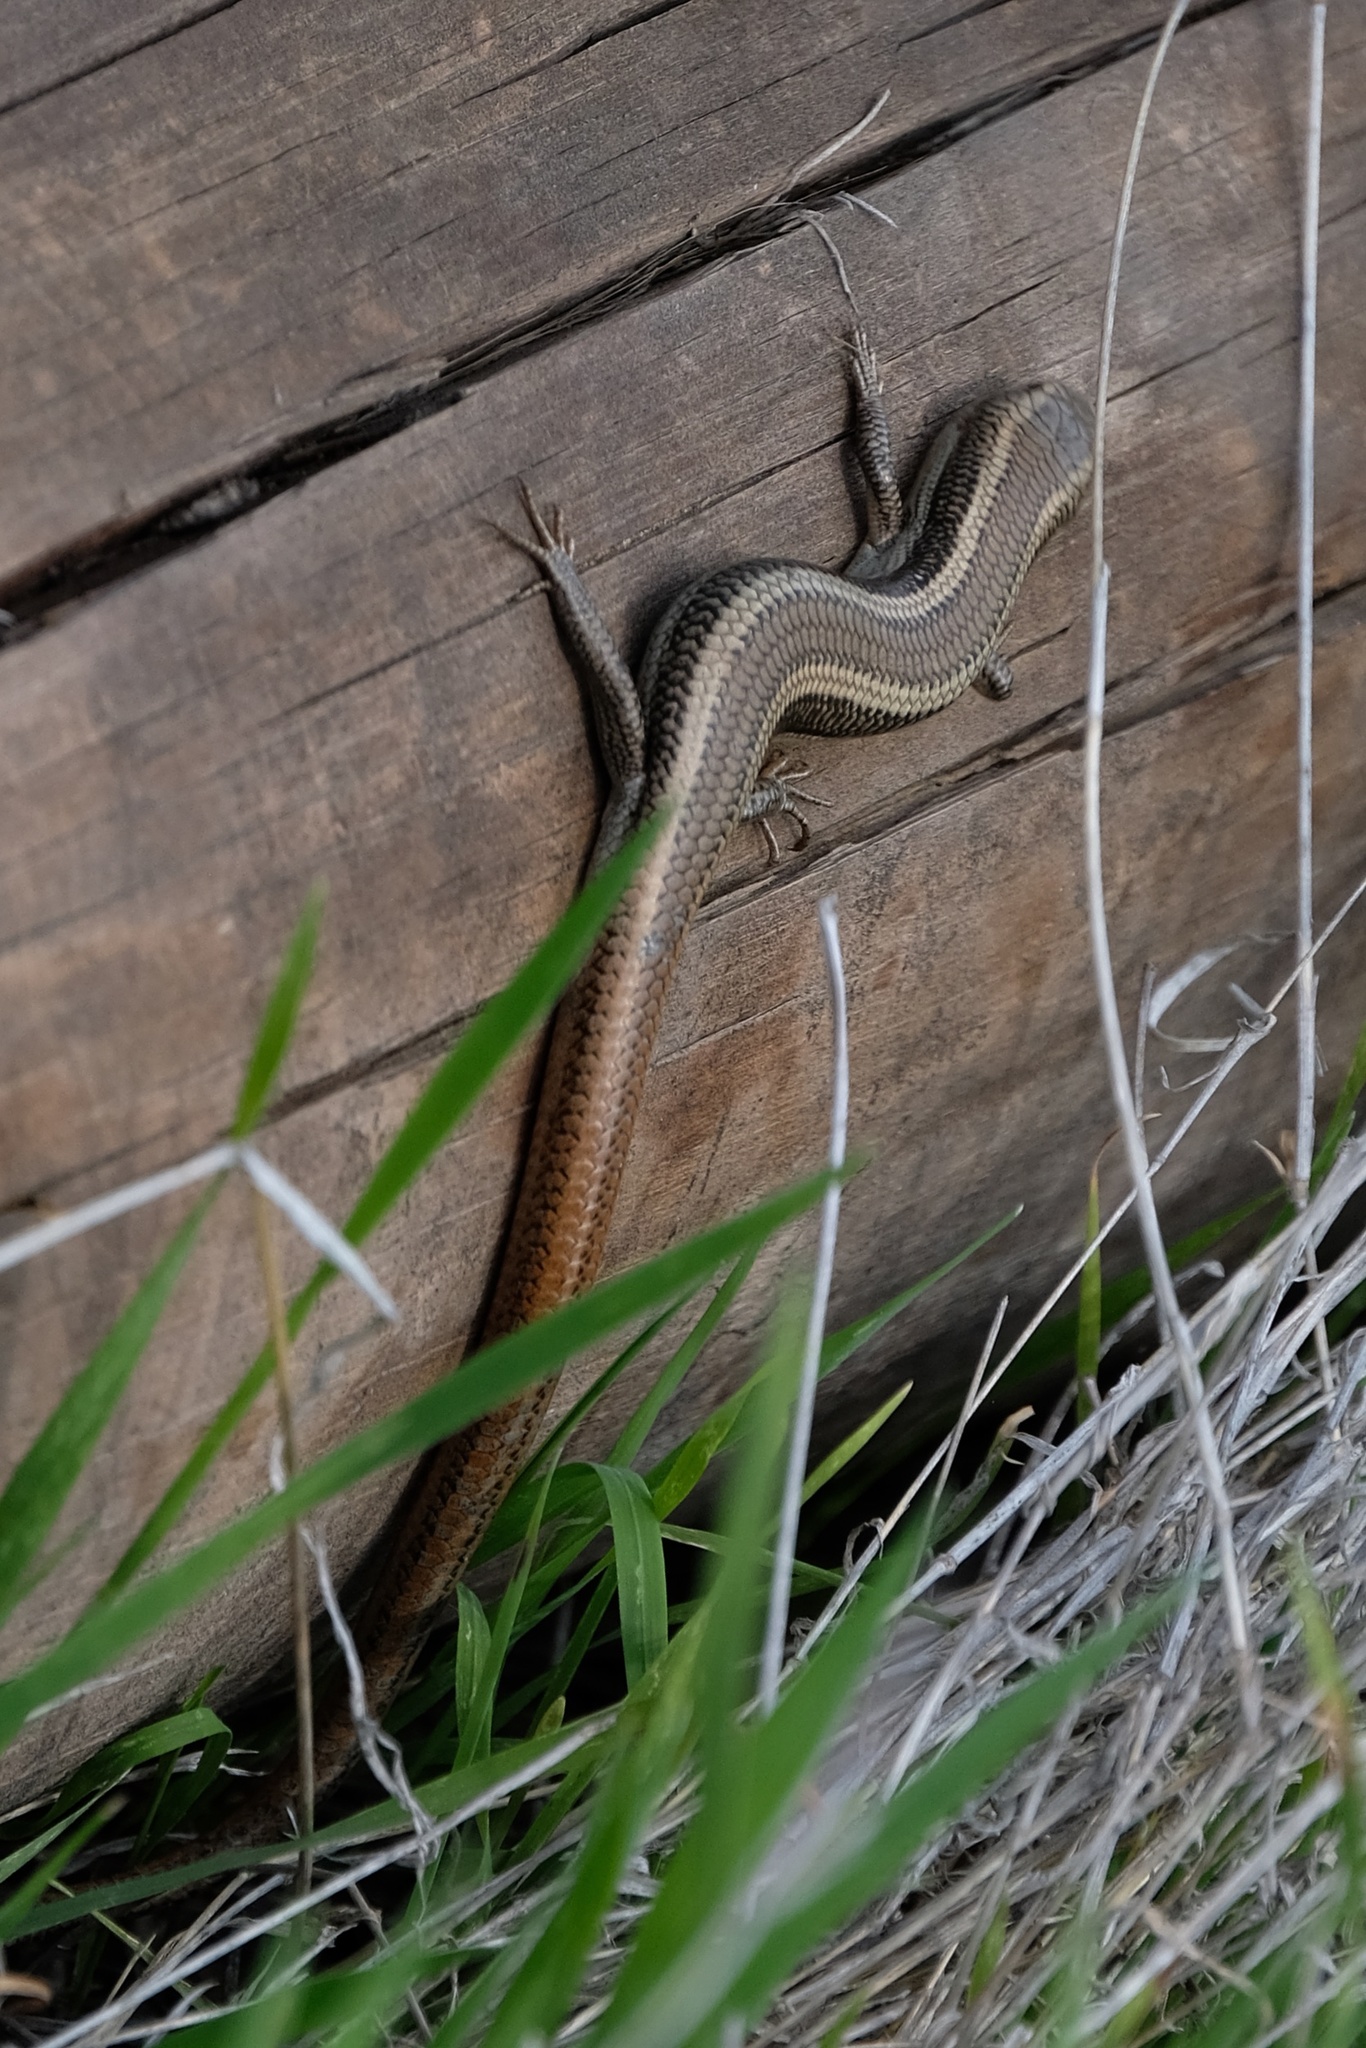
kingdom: Animalia
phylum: Chordata
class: Squamata
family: Scincidae
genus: Plestiodon
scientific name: Plestiodon skiltonianus
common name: Coronado island skink [interparietalis]
